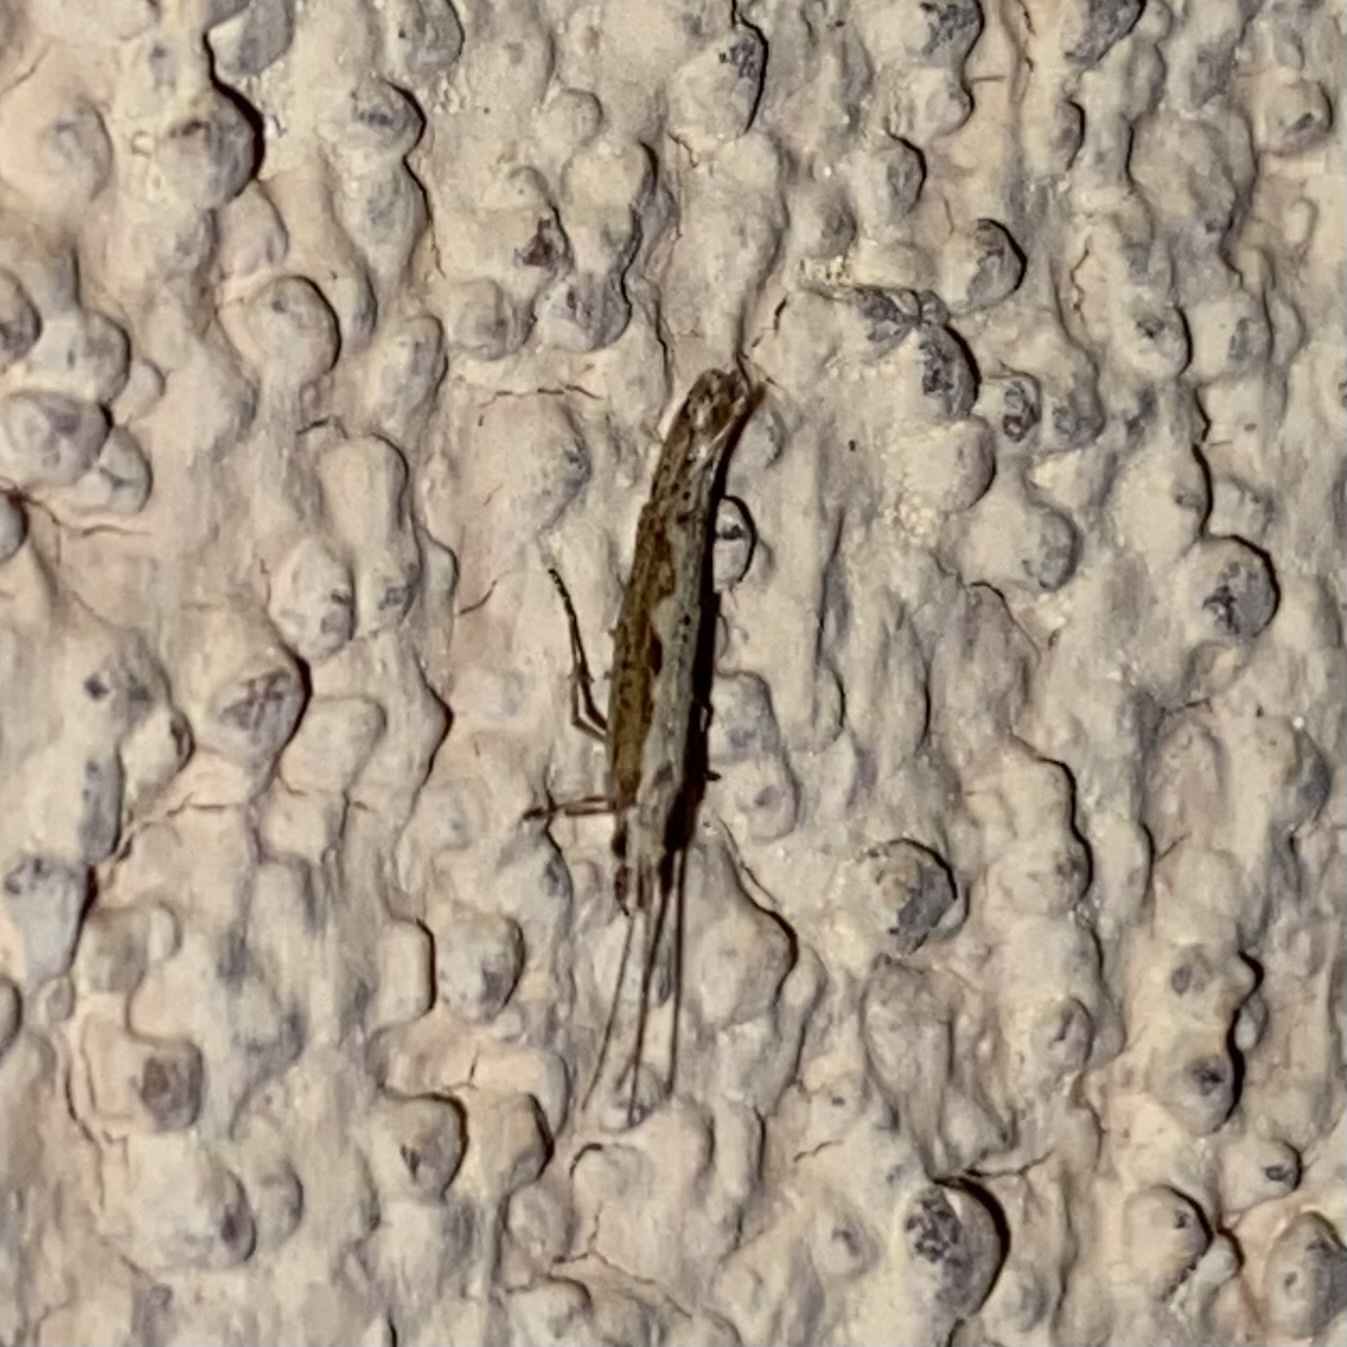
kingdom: Animalia
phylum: Arthropoda
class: Insecta
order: Lepidoptera
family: Plutellidae
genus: Plutella
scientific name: Plutella xylostella
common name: Diamond-back moth
